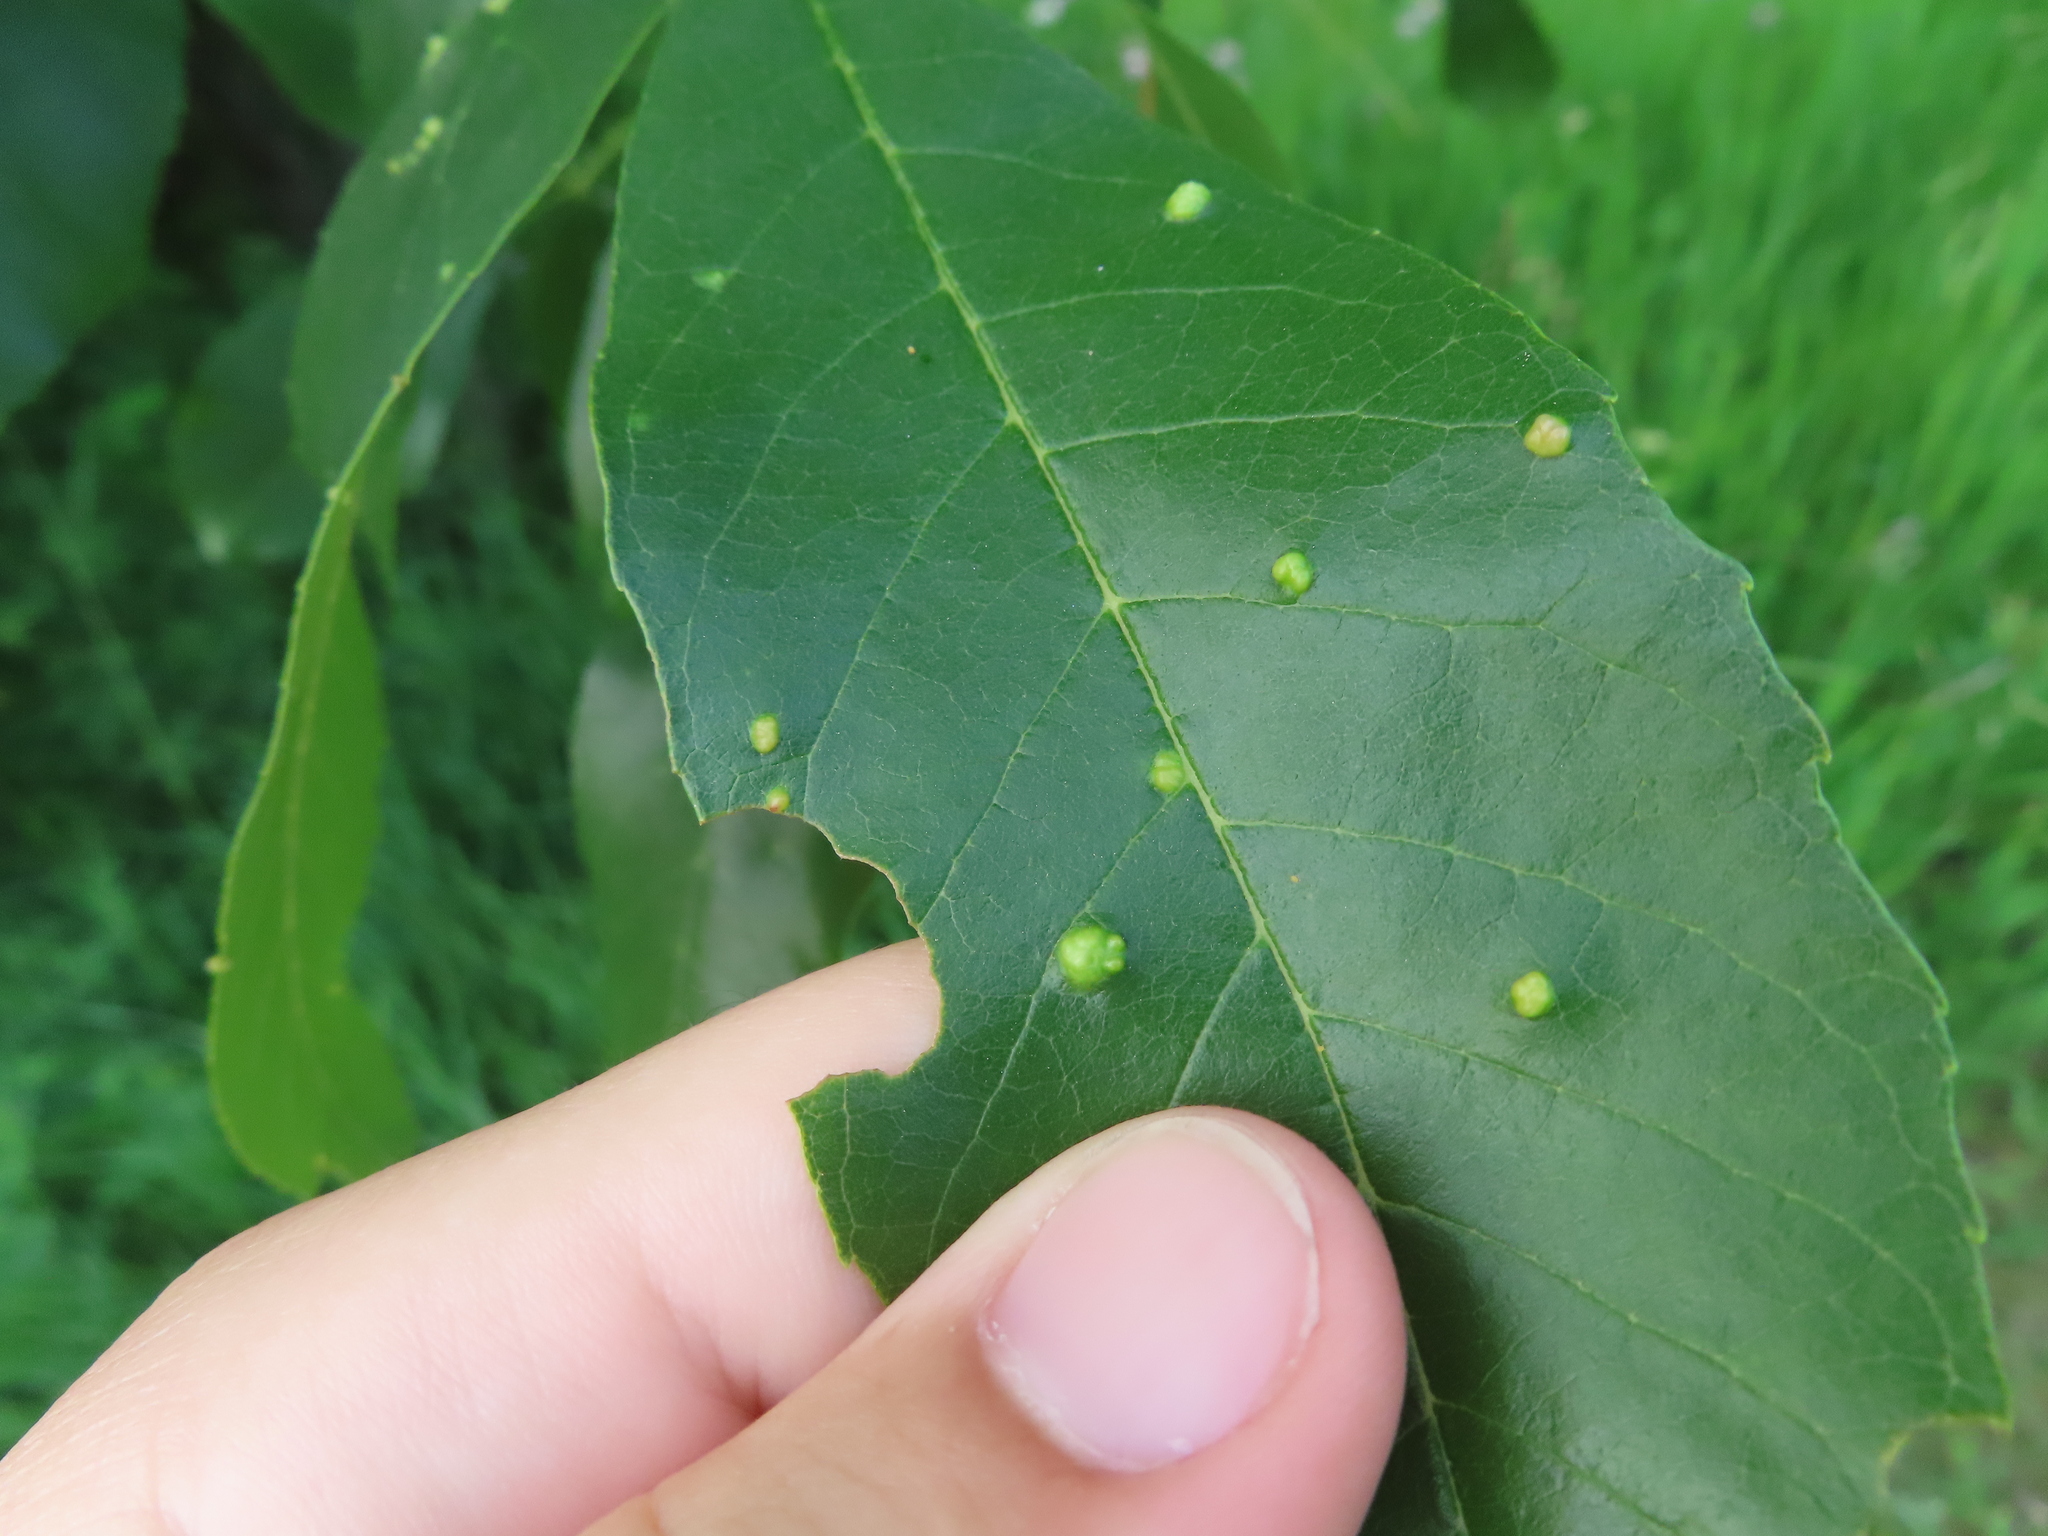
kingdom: Animalia
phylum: Arthropoda
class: Arachnida
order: Trombidiformes
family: Eriophyidae
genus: Aceria
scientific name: Aceria fraxinicola
